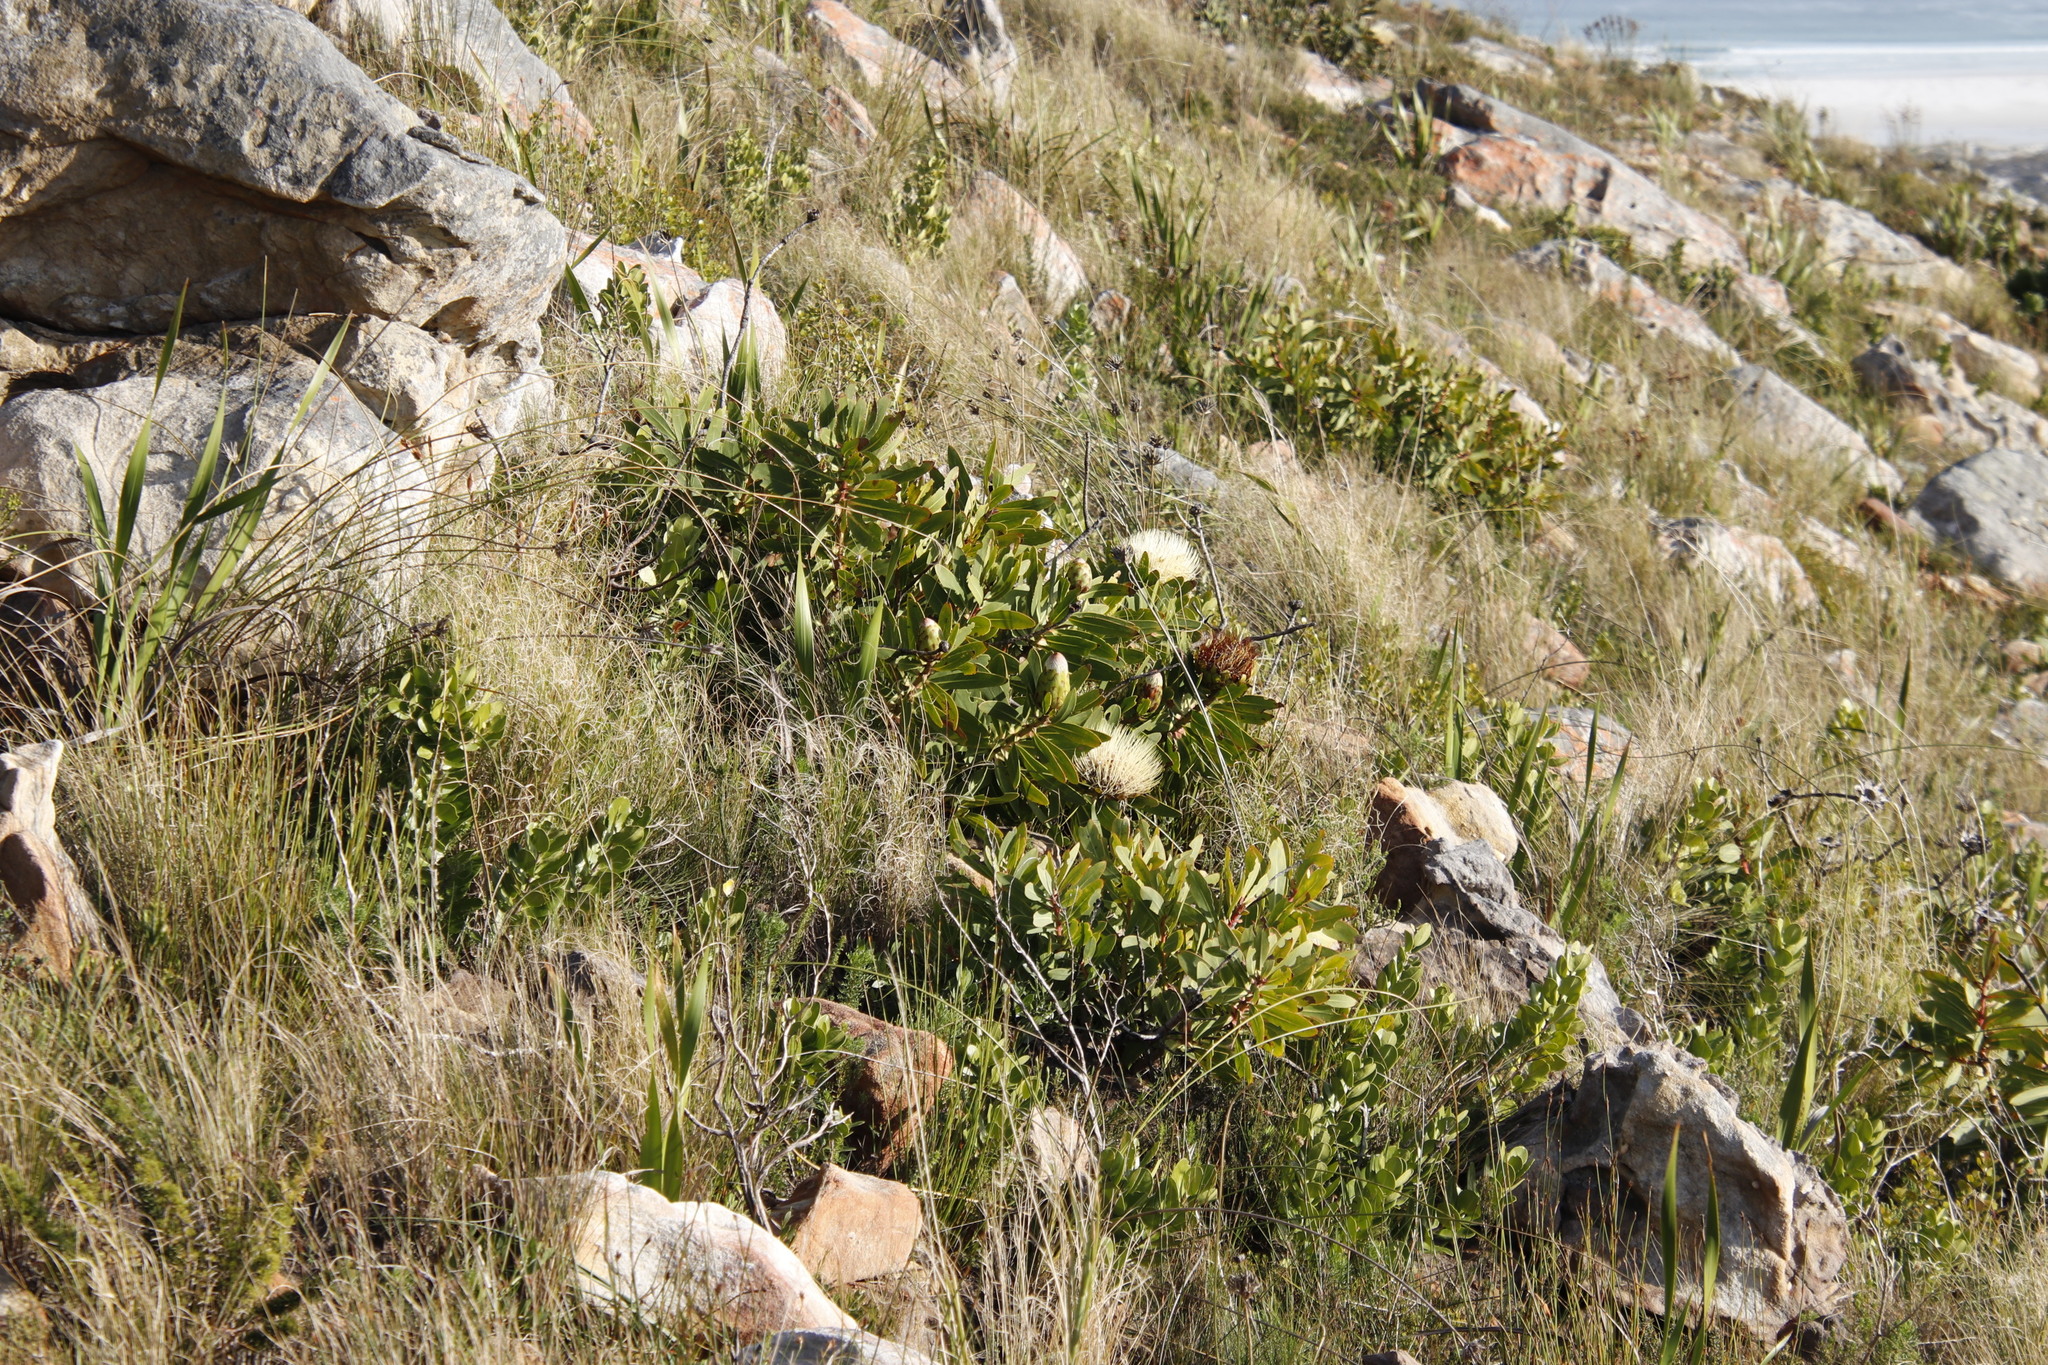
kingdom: Plantae
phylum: Tracheophyta
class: Magnoliopsida
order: Proteales
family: Proteaceae
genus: Protea
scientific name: Protea nitida
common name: Tree protea
